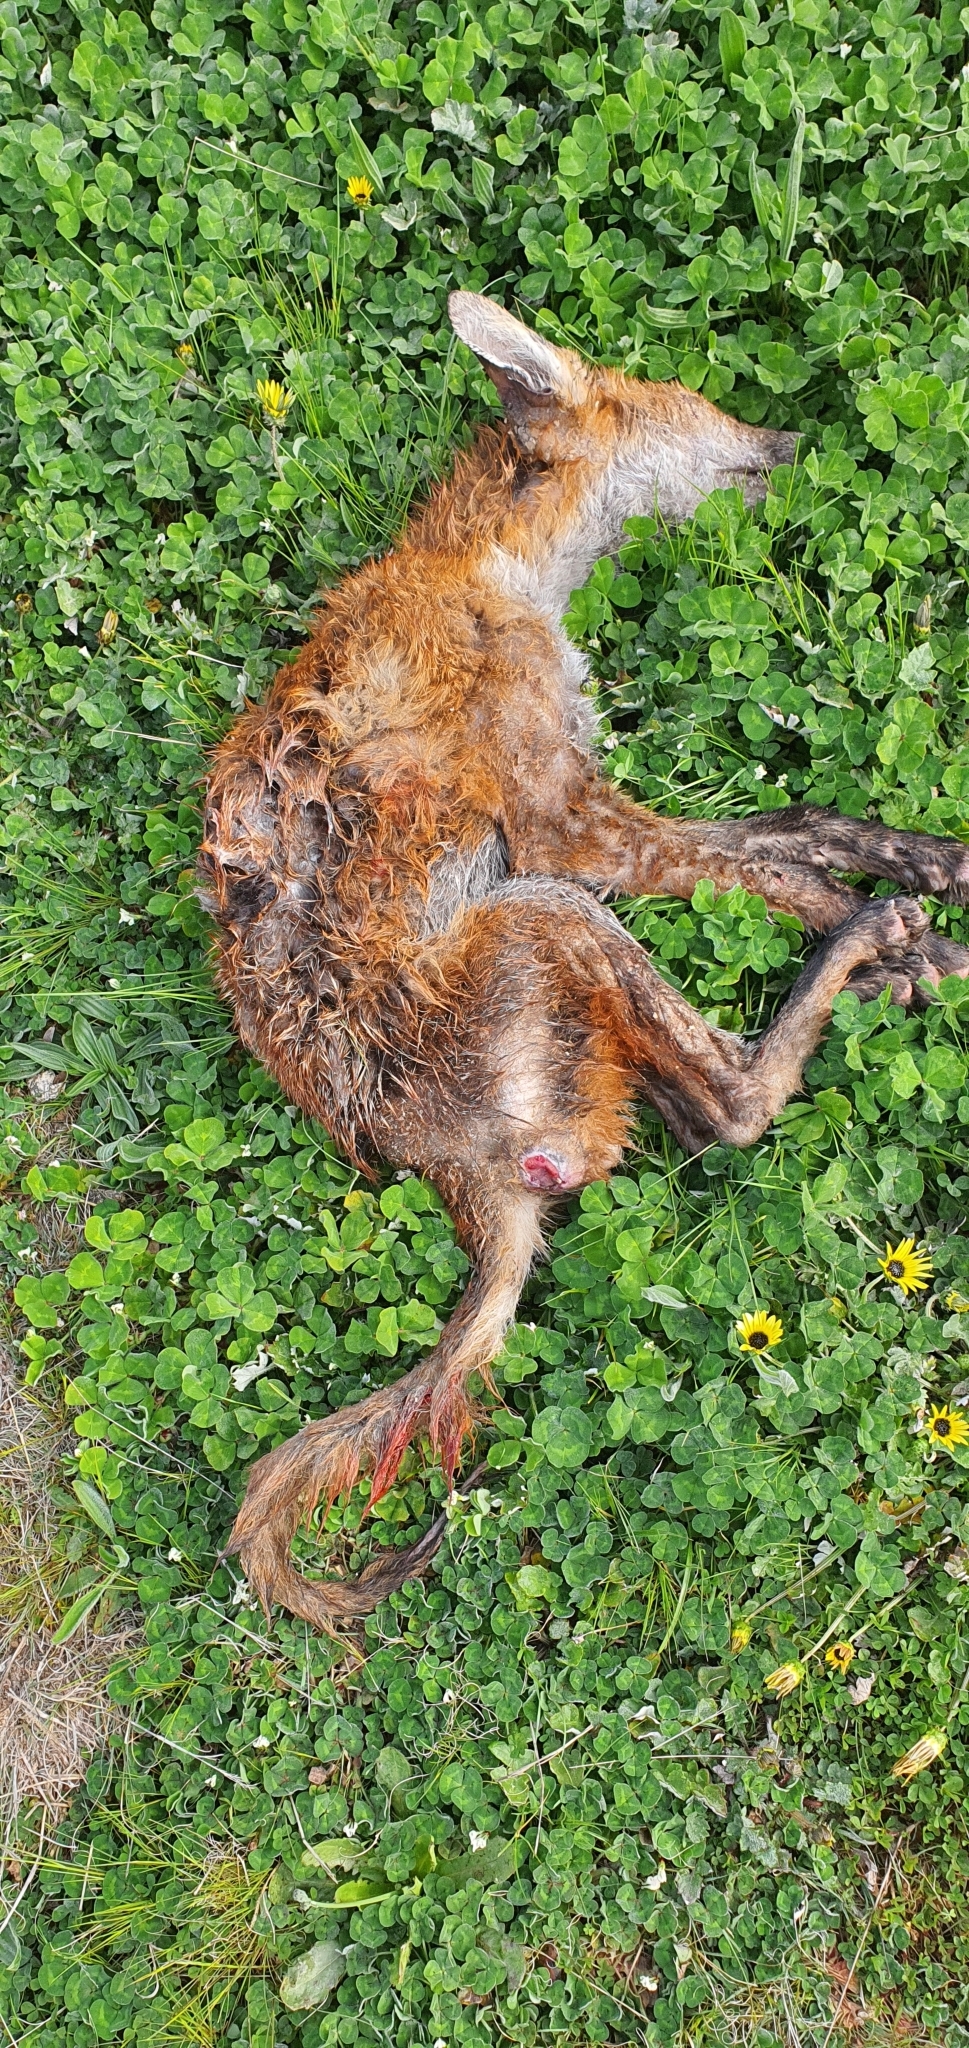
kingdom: Animalia
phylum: Chordata
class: Mammalia
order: Carnivora
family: Canidae
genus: Vulpes
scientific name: Vulpes vulpes
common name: Red fox
